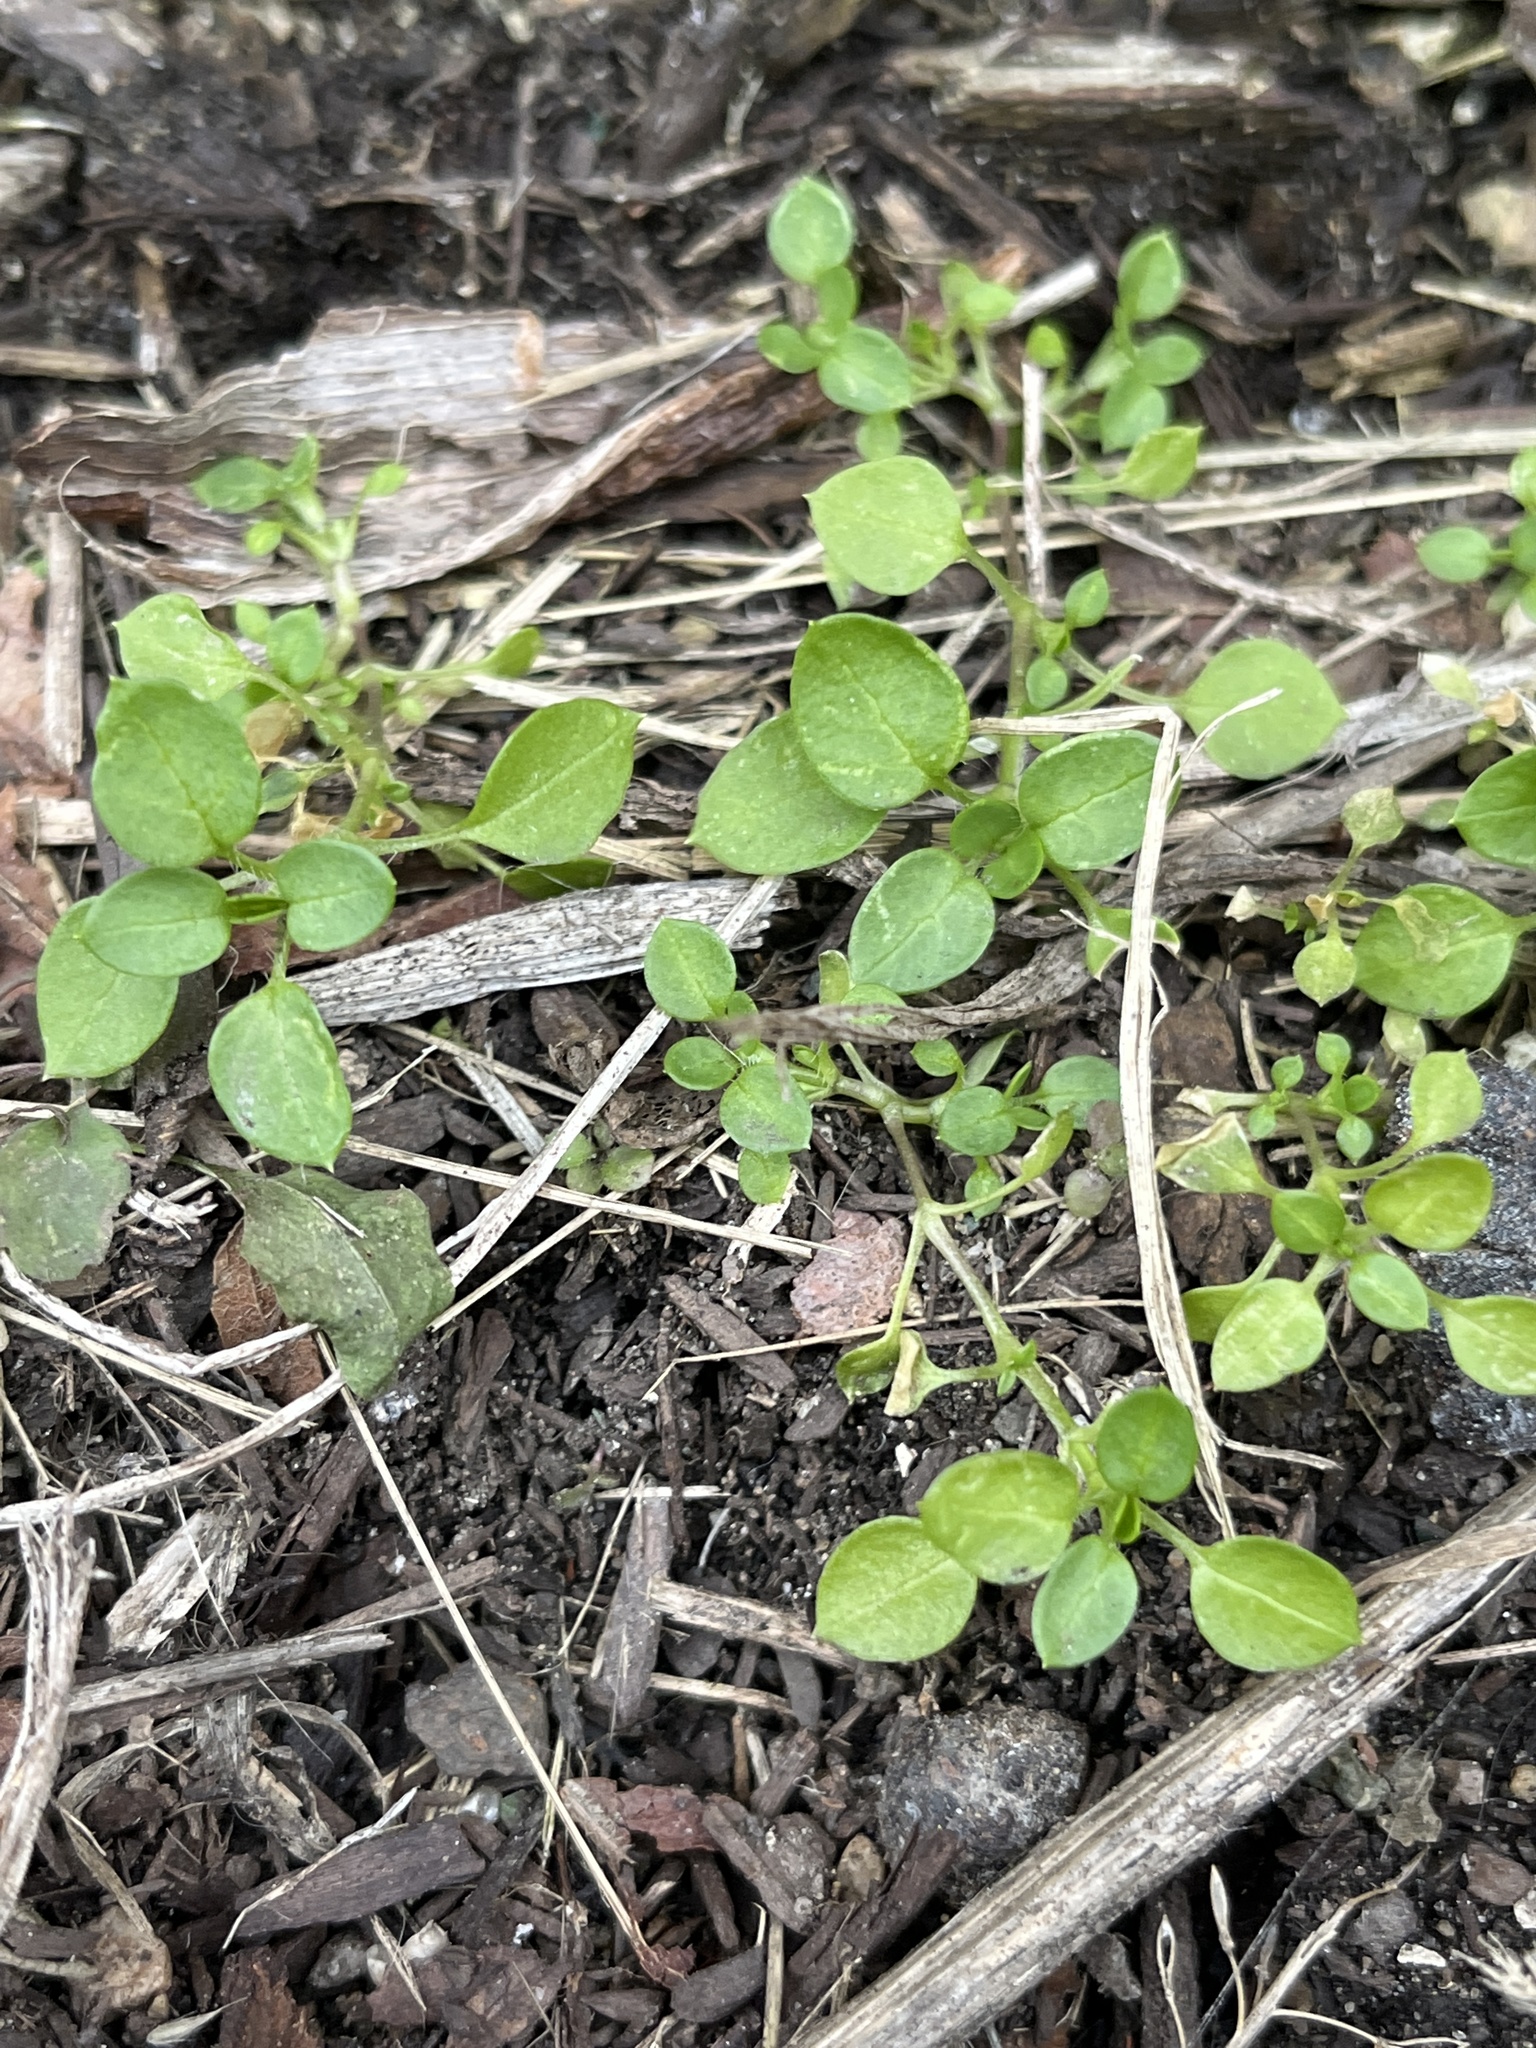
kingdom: Plantae
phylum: Tracheophyta
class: Magnoliopsida
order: Caryophyllales
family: Caryophyllaceae
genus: Stellaria
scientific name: Stellaria media
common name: Common chickweed
